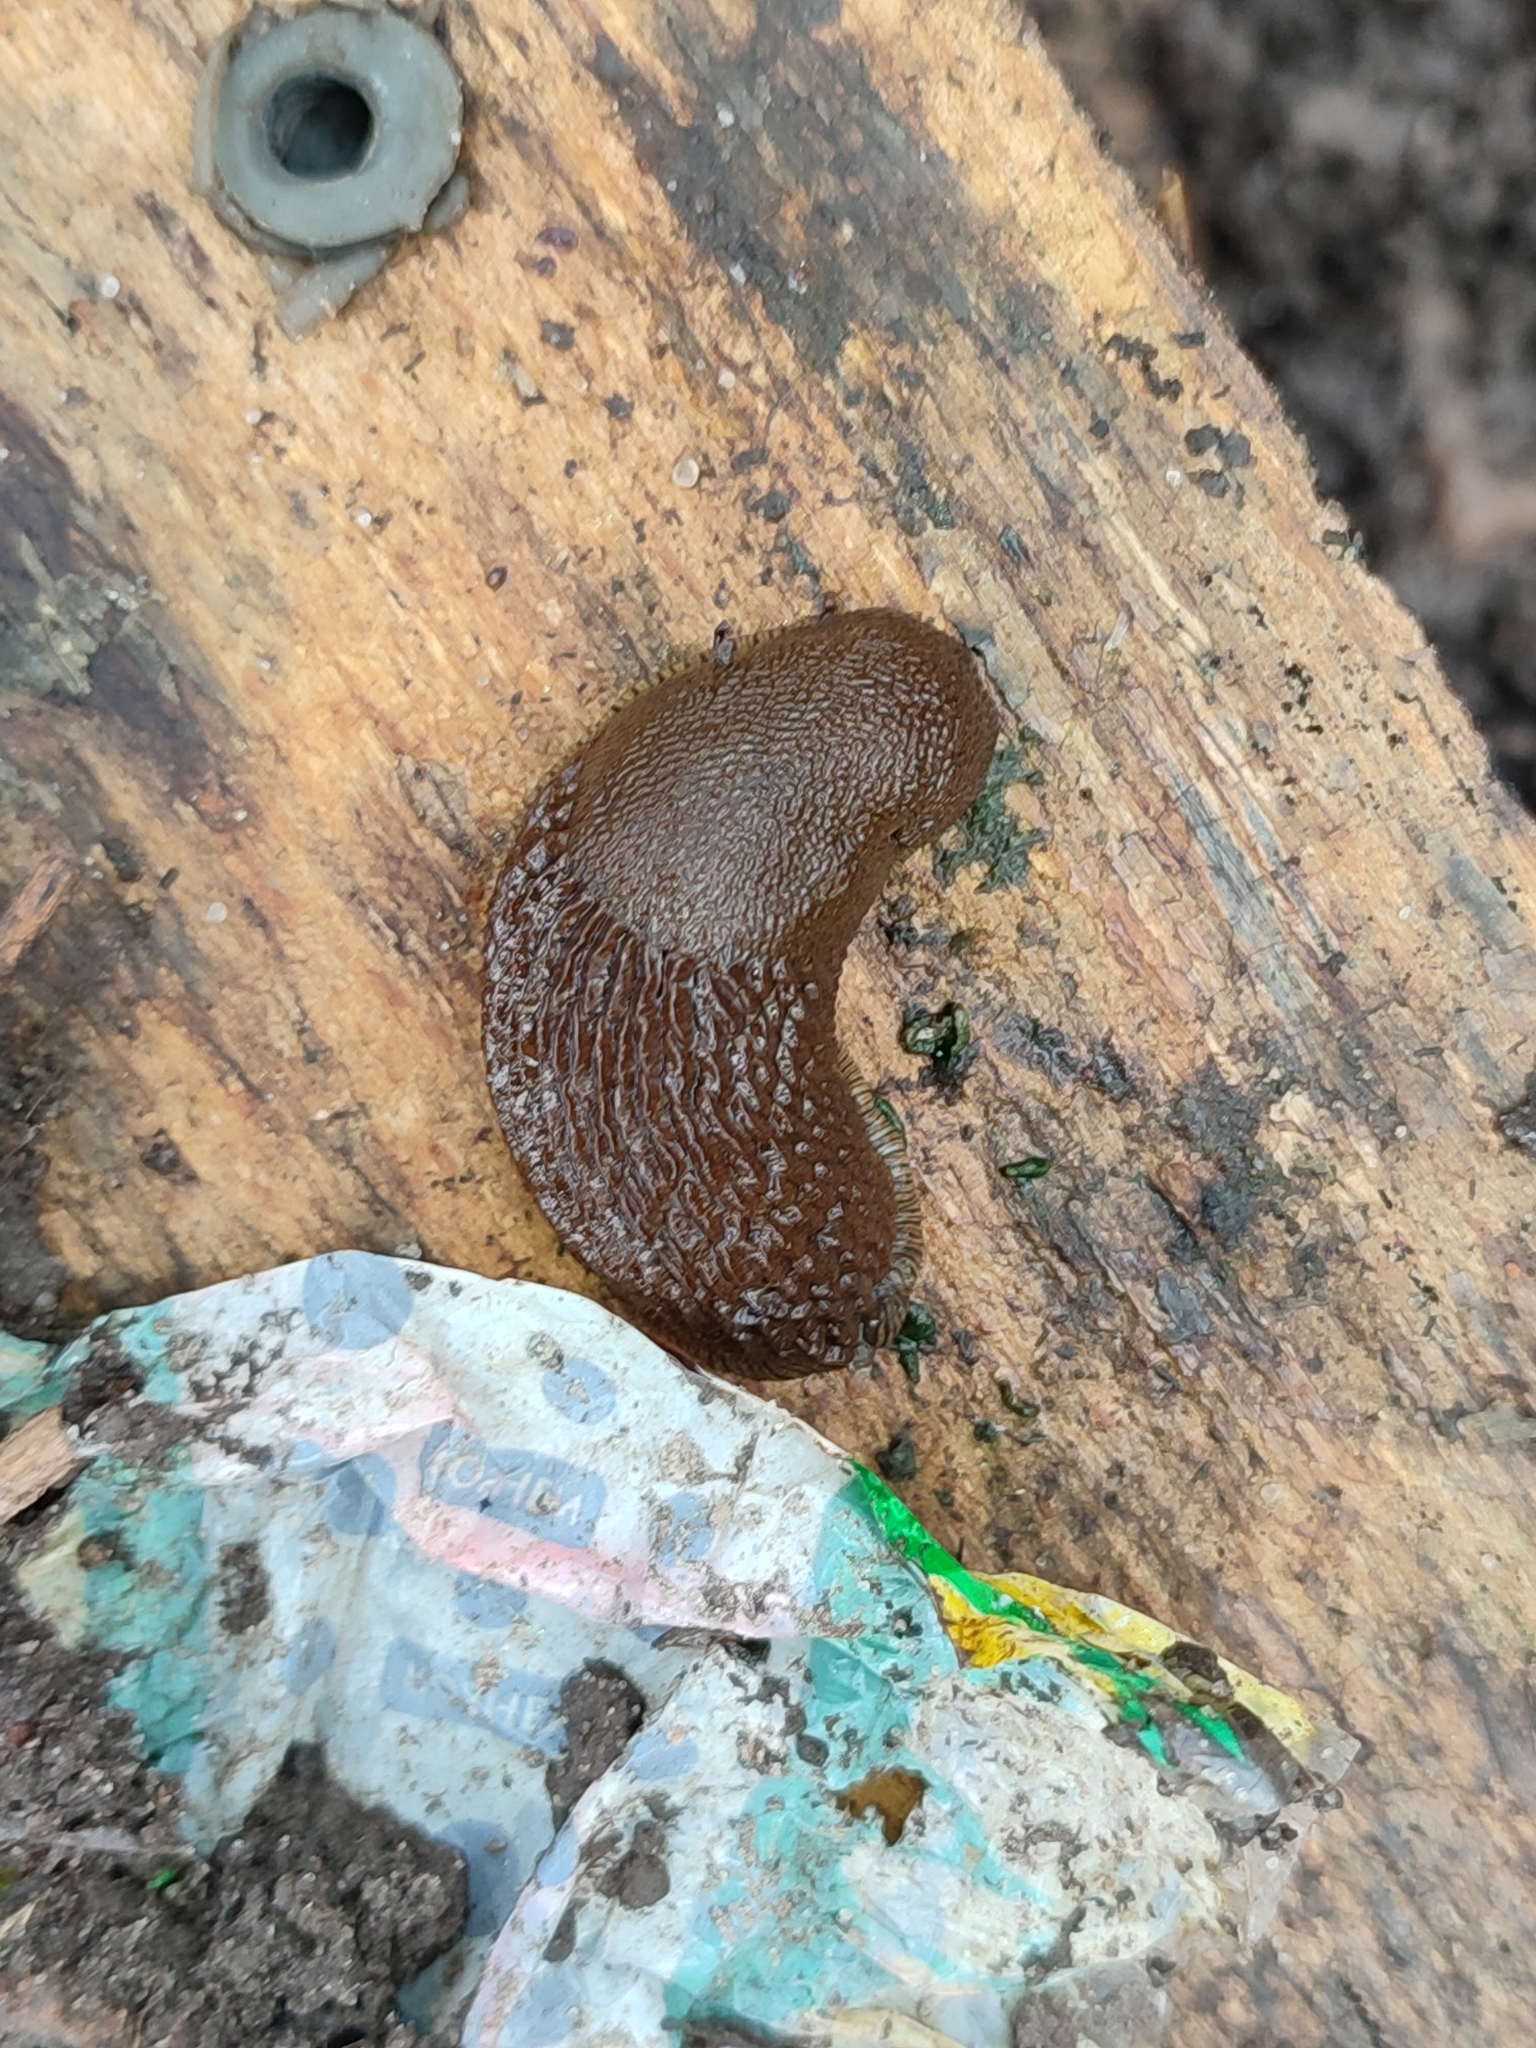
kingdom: Animalia
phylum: Mollusca
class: Gastropoda
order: Stylommatophora
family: Arionidae
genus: Arion
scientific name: Arion vulgaris
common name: Lusitanian slug
